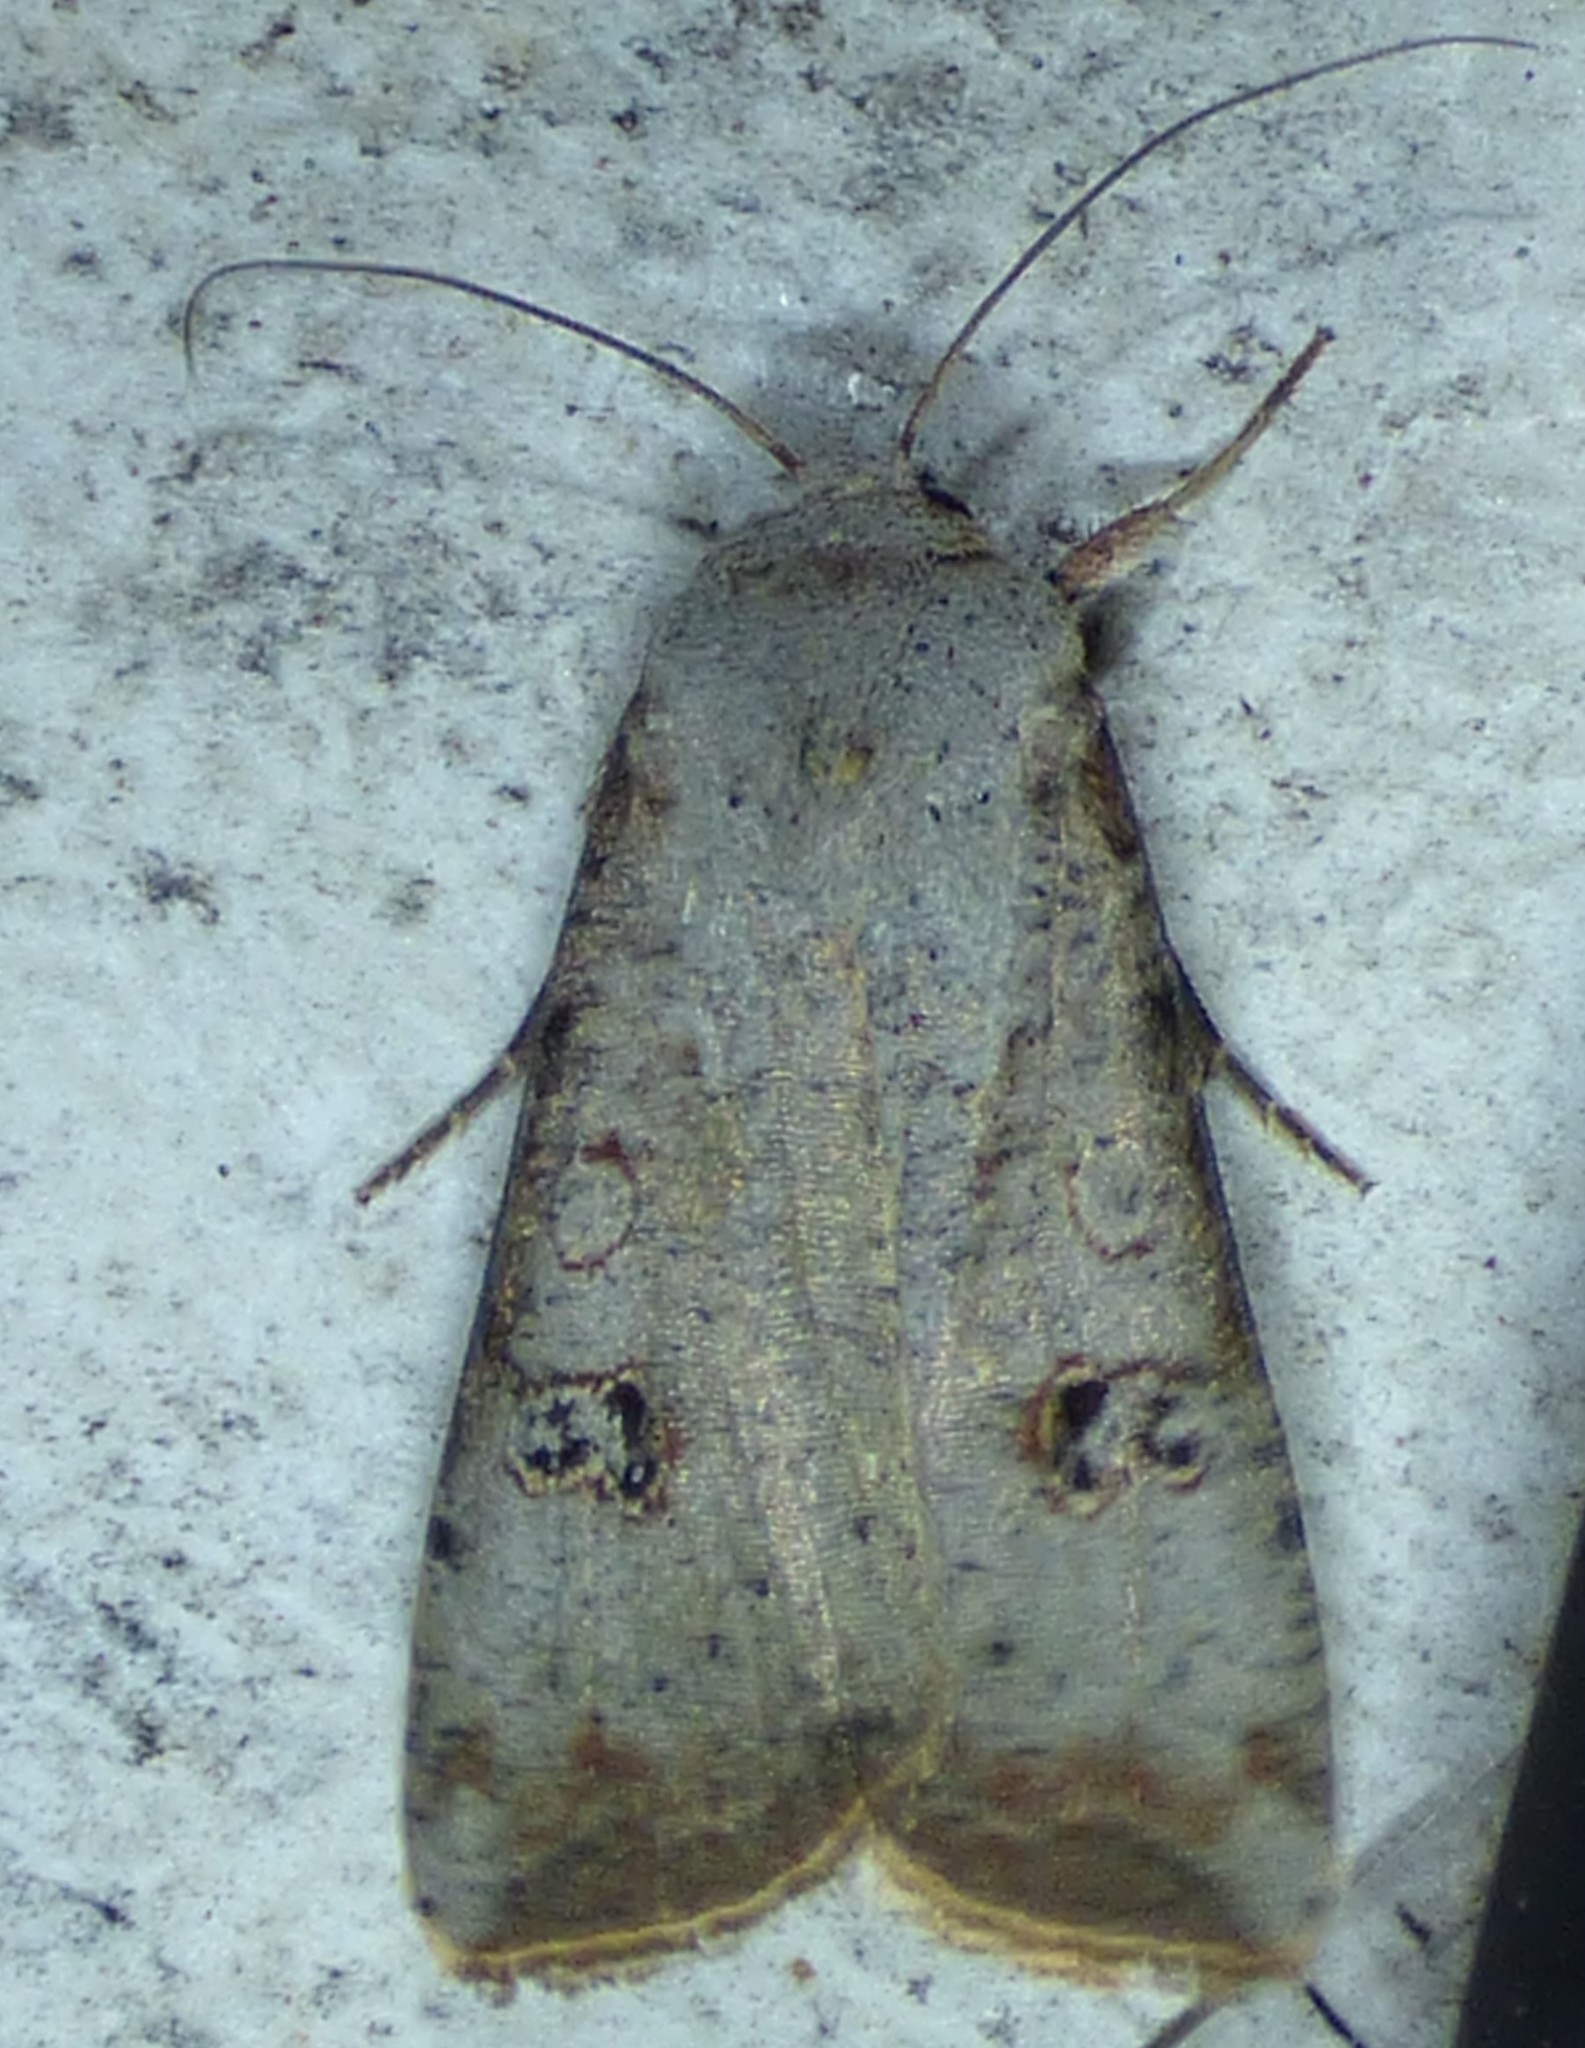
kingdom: Animalia
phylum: Arthropoda
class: Insecta
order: Lepidoptera
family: Noctuidae
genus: Anicla
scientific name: Anicla infecta
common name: Green cutworm
